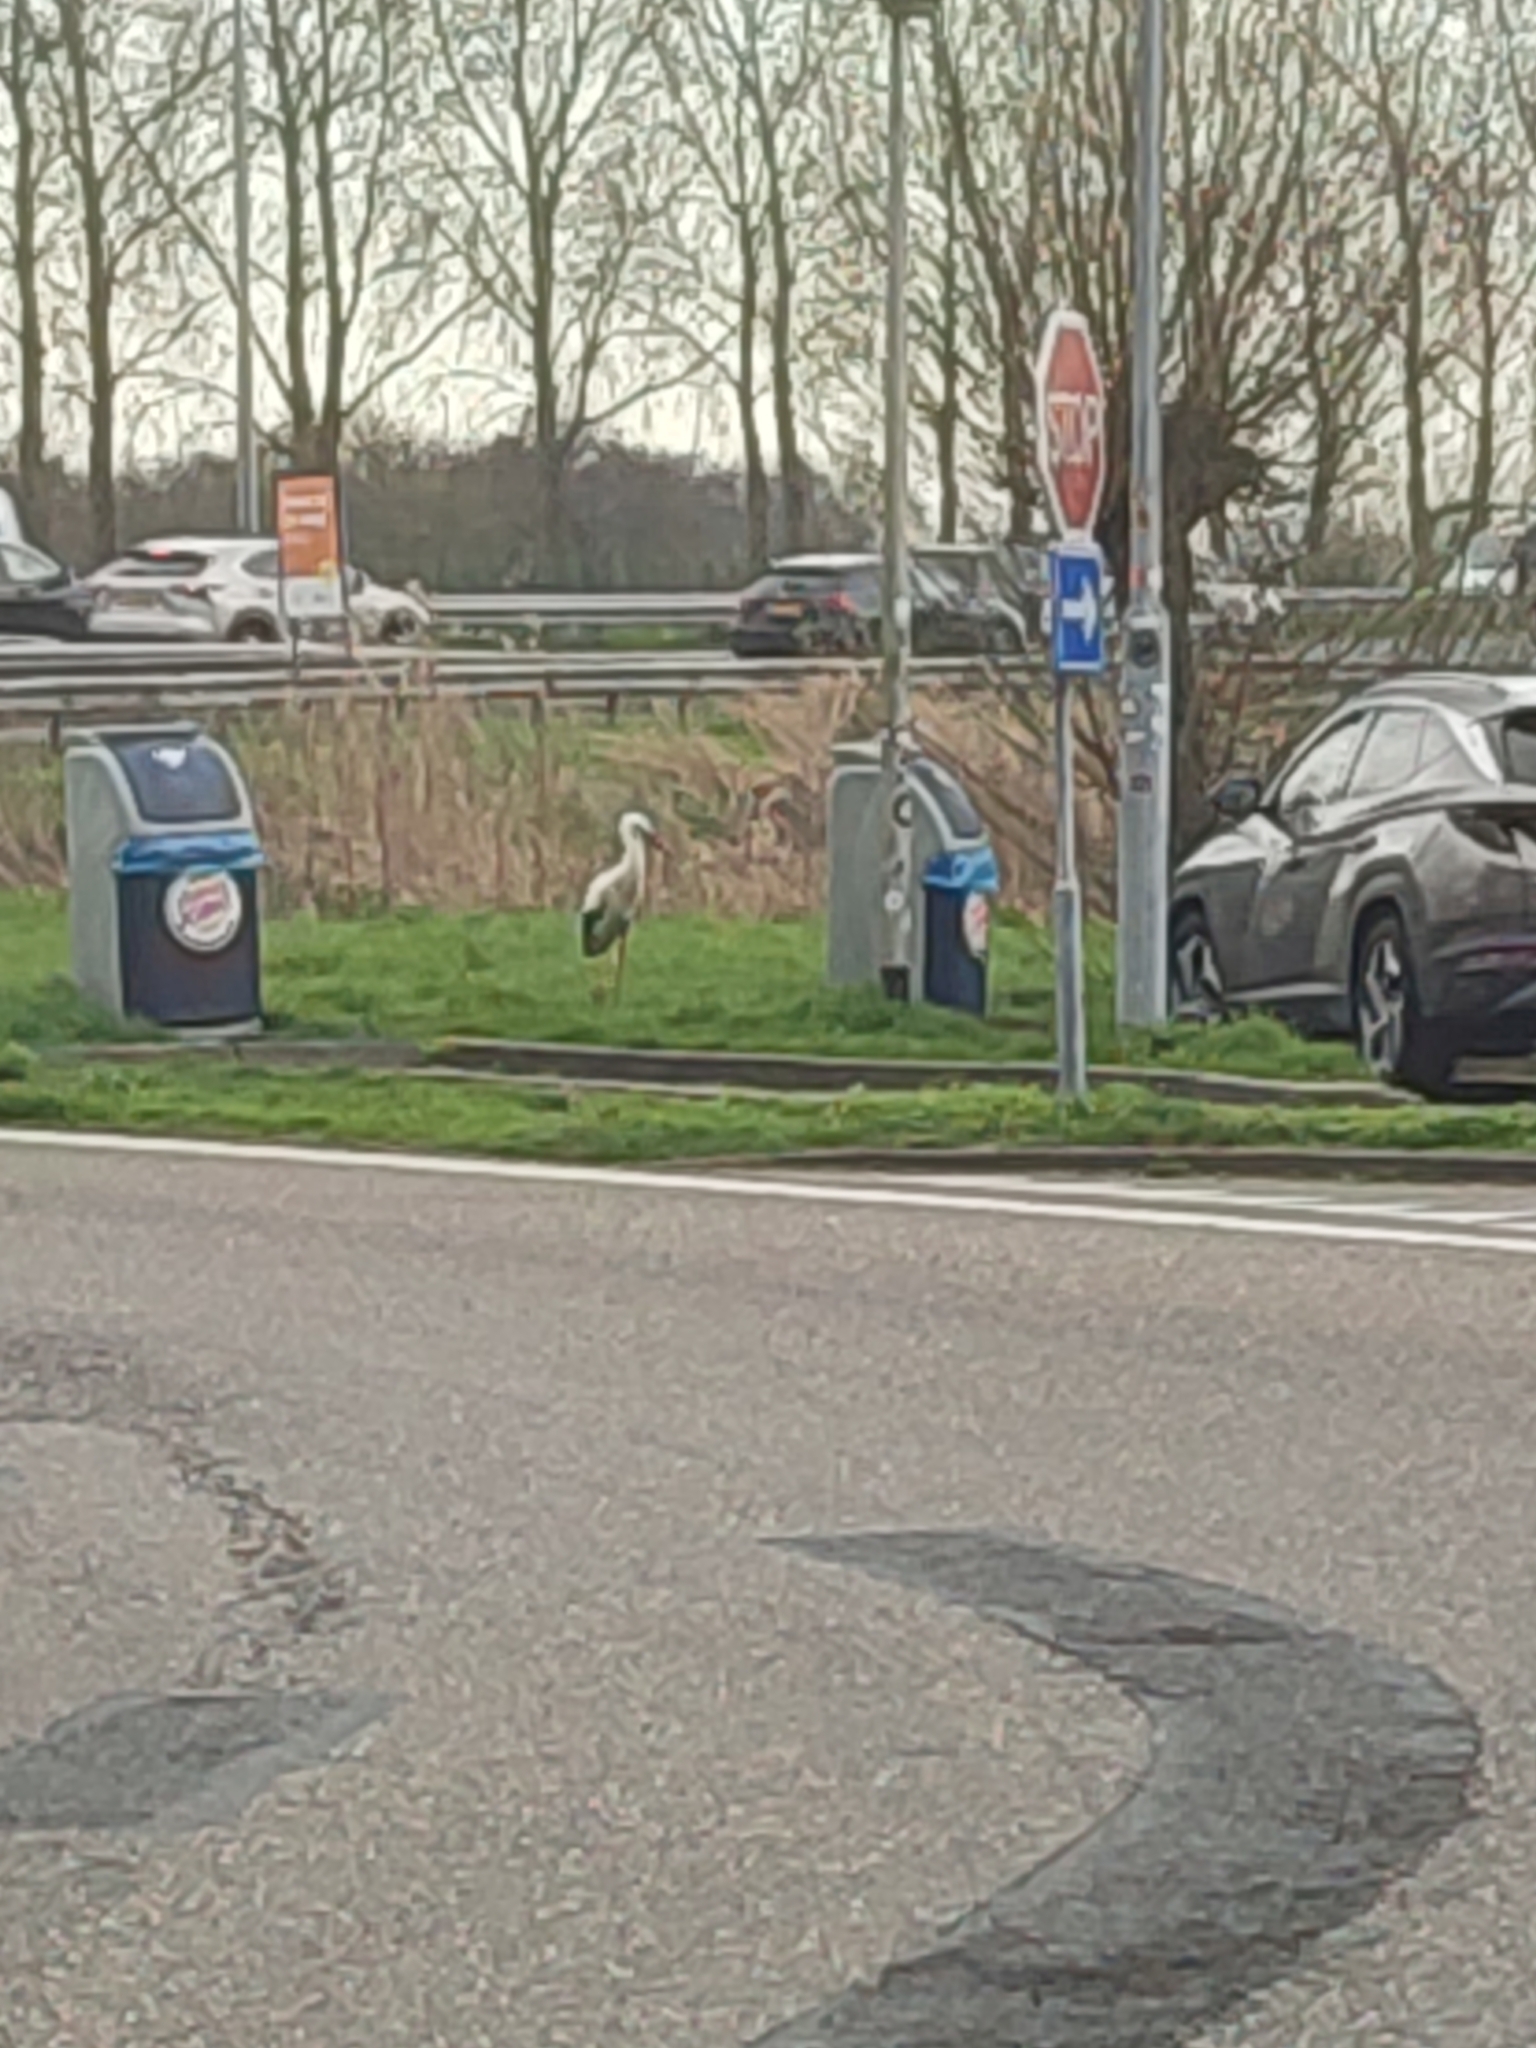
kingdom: Animalia
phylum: Chordata
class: Aves
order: Ciconiiformes
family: Ciconiidae
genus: Ciconia
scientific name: Ciconia ciconia
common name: White stork
